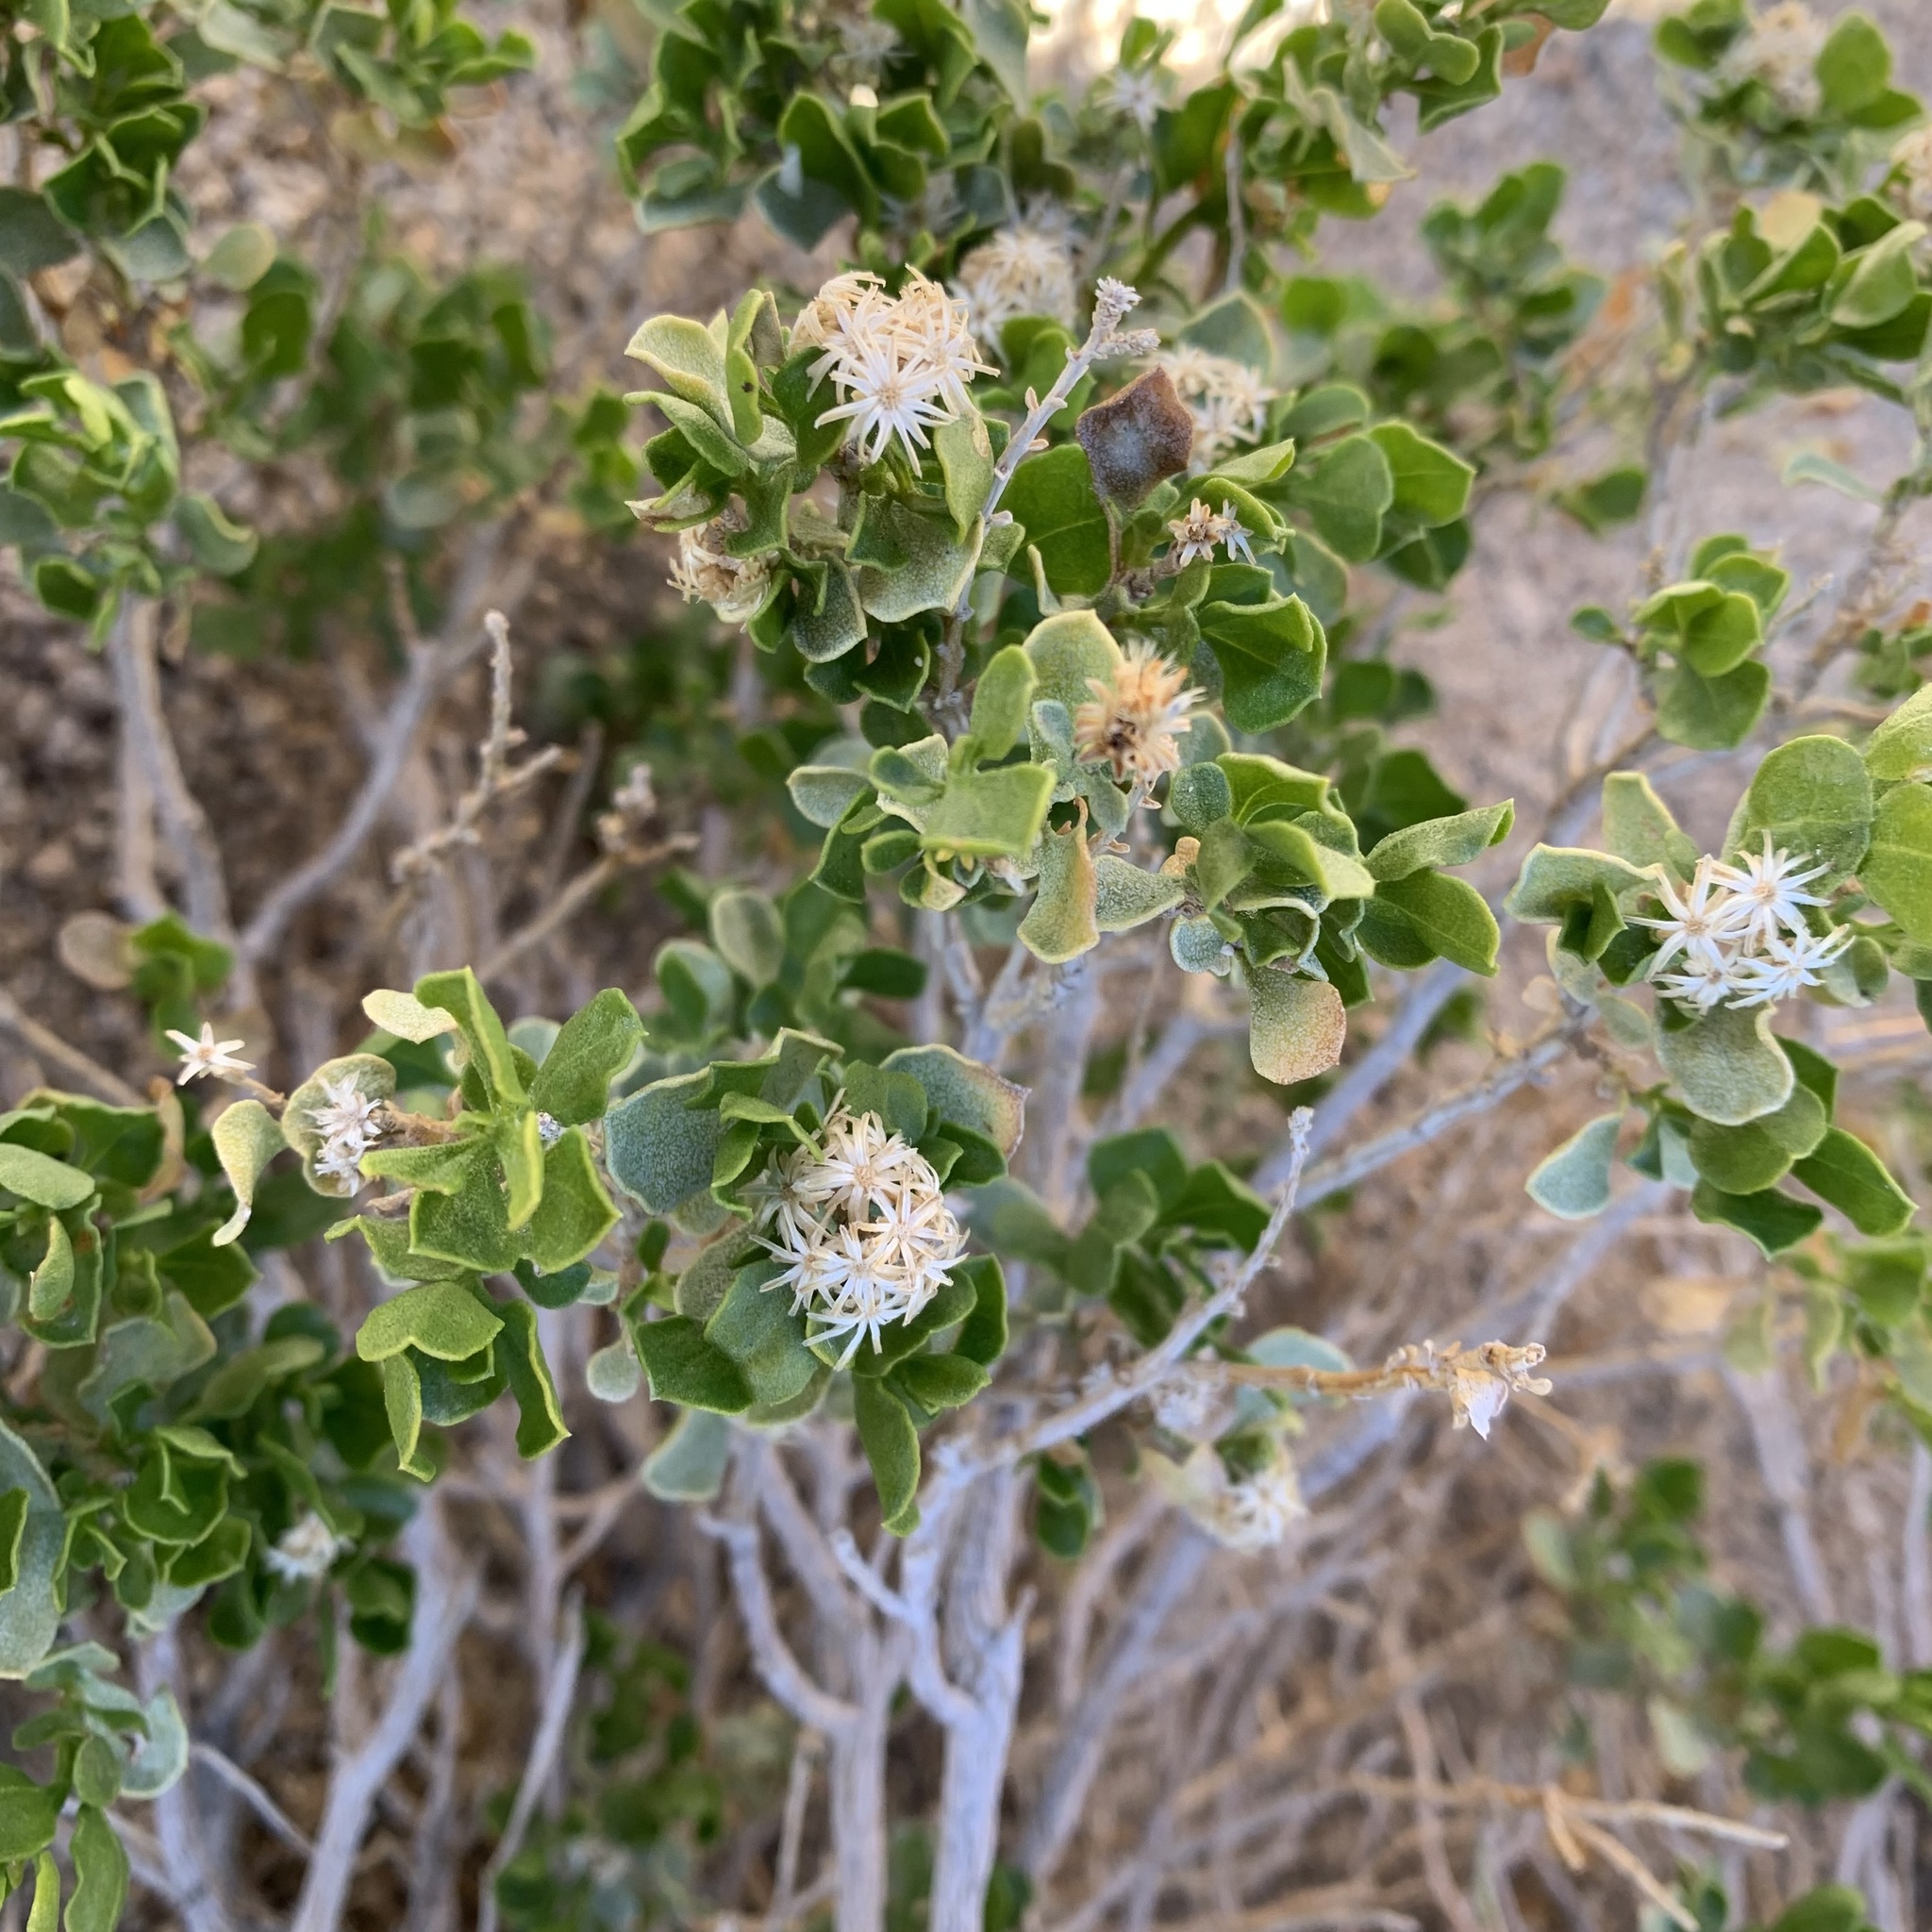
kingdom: Plantae
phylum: Tracheophyta
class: Magnoliopsida
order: Asterales
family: Asteraceae
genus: Ericameria
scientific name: Ericameria cuneata
